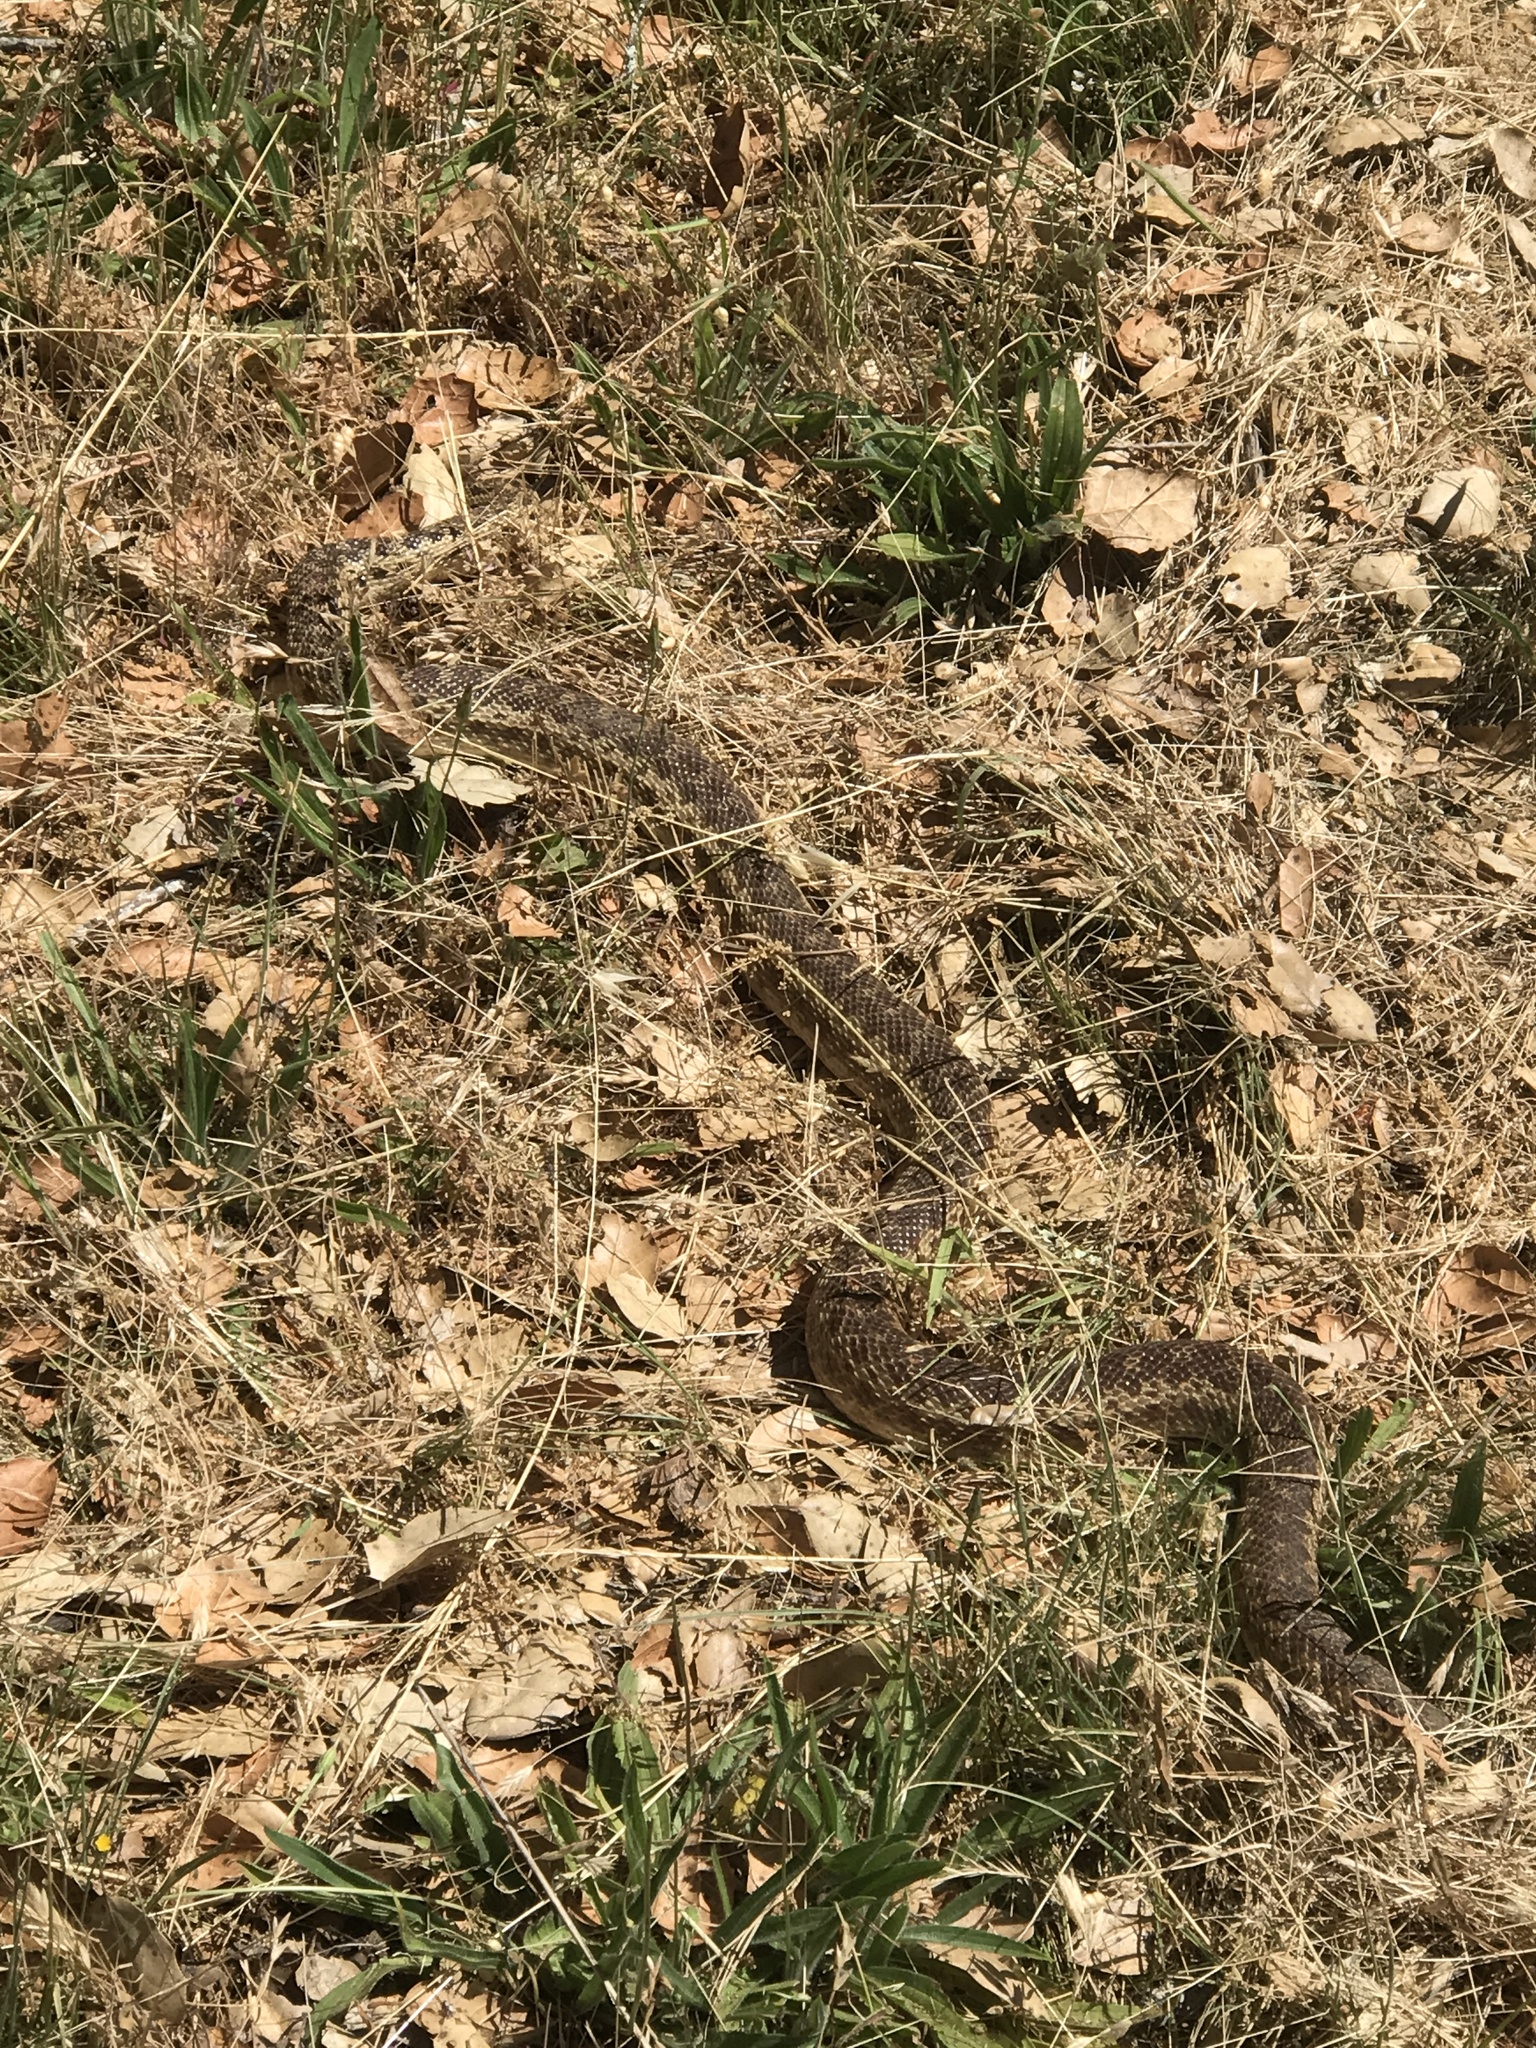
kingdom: Animalia
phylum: Chordata
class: Squamata
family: Colubridae
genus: Pituophis
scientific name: Pituophis catenifer
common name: Gopher snake
